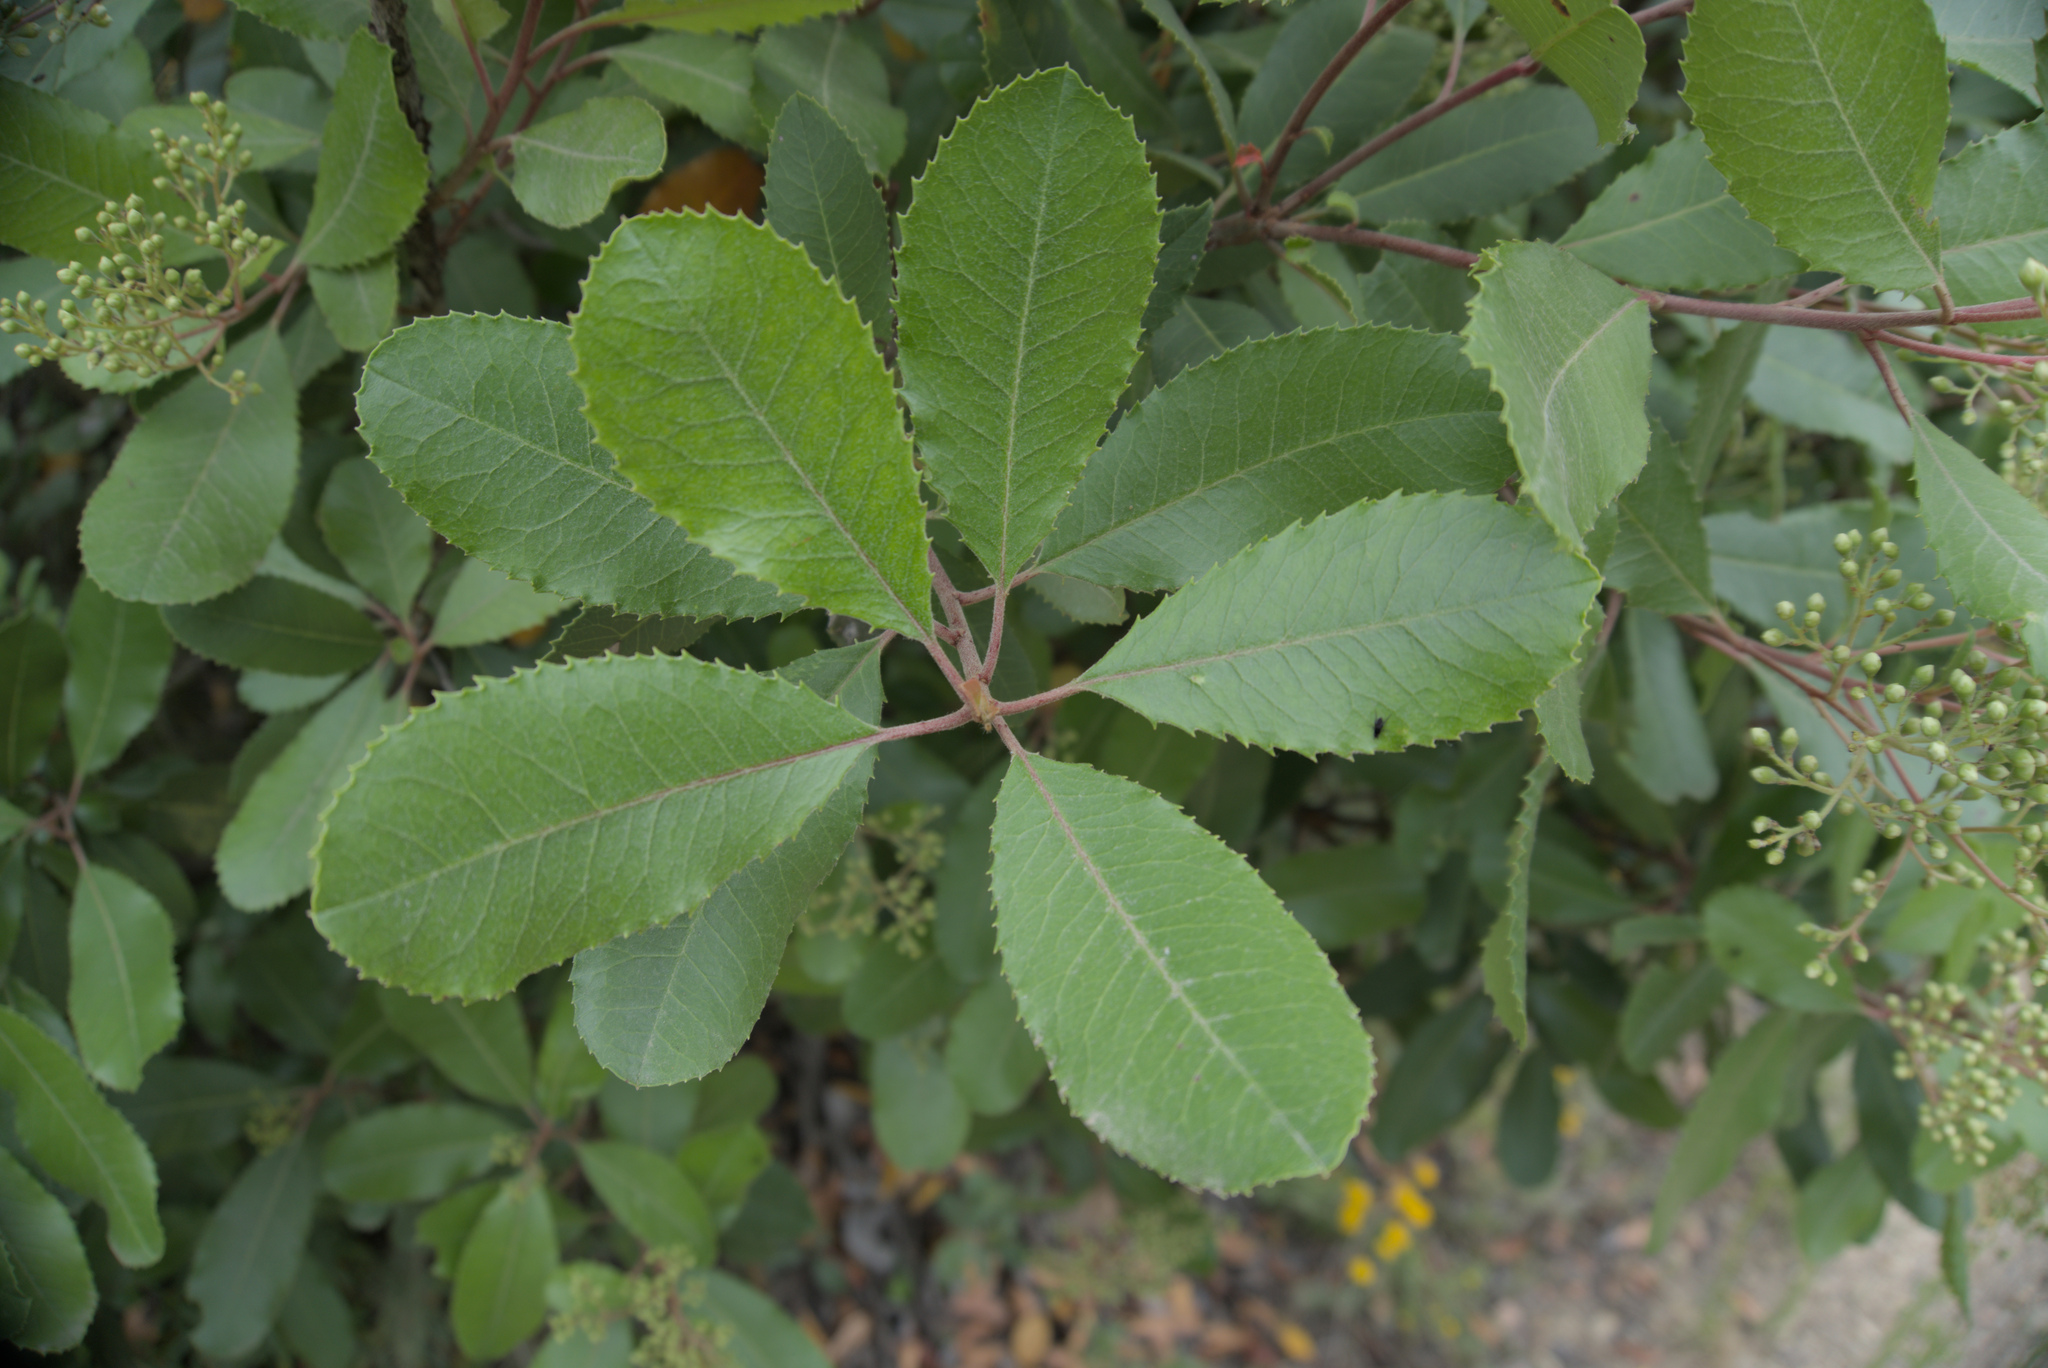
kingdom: Plantae
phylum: Tracheophyta
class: Magnoliopsida
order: Rosales
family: Rosaceae
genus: Heteromeles
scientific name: Heteromeles arbutifolia
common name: California-holly
